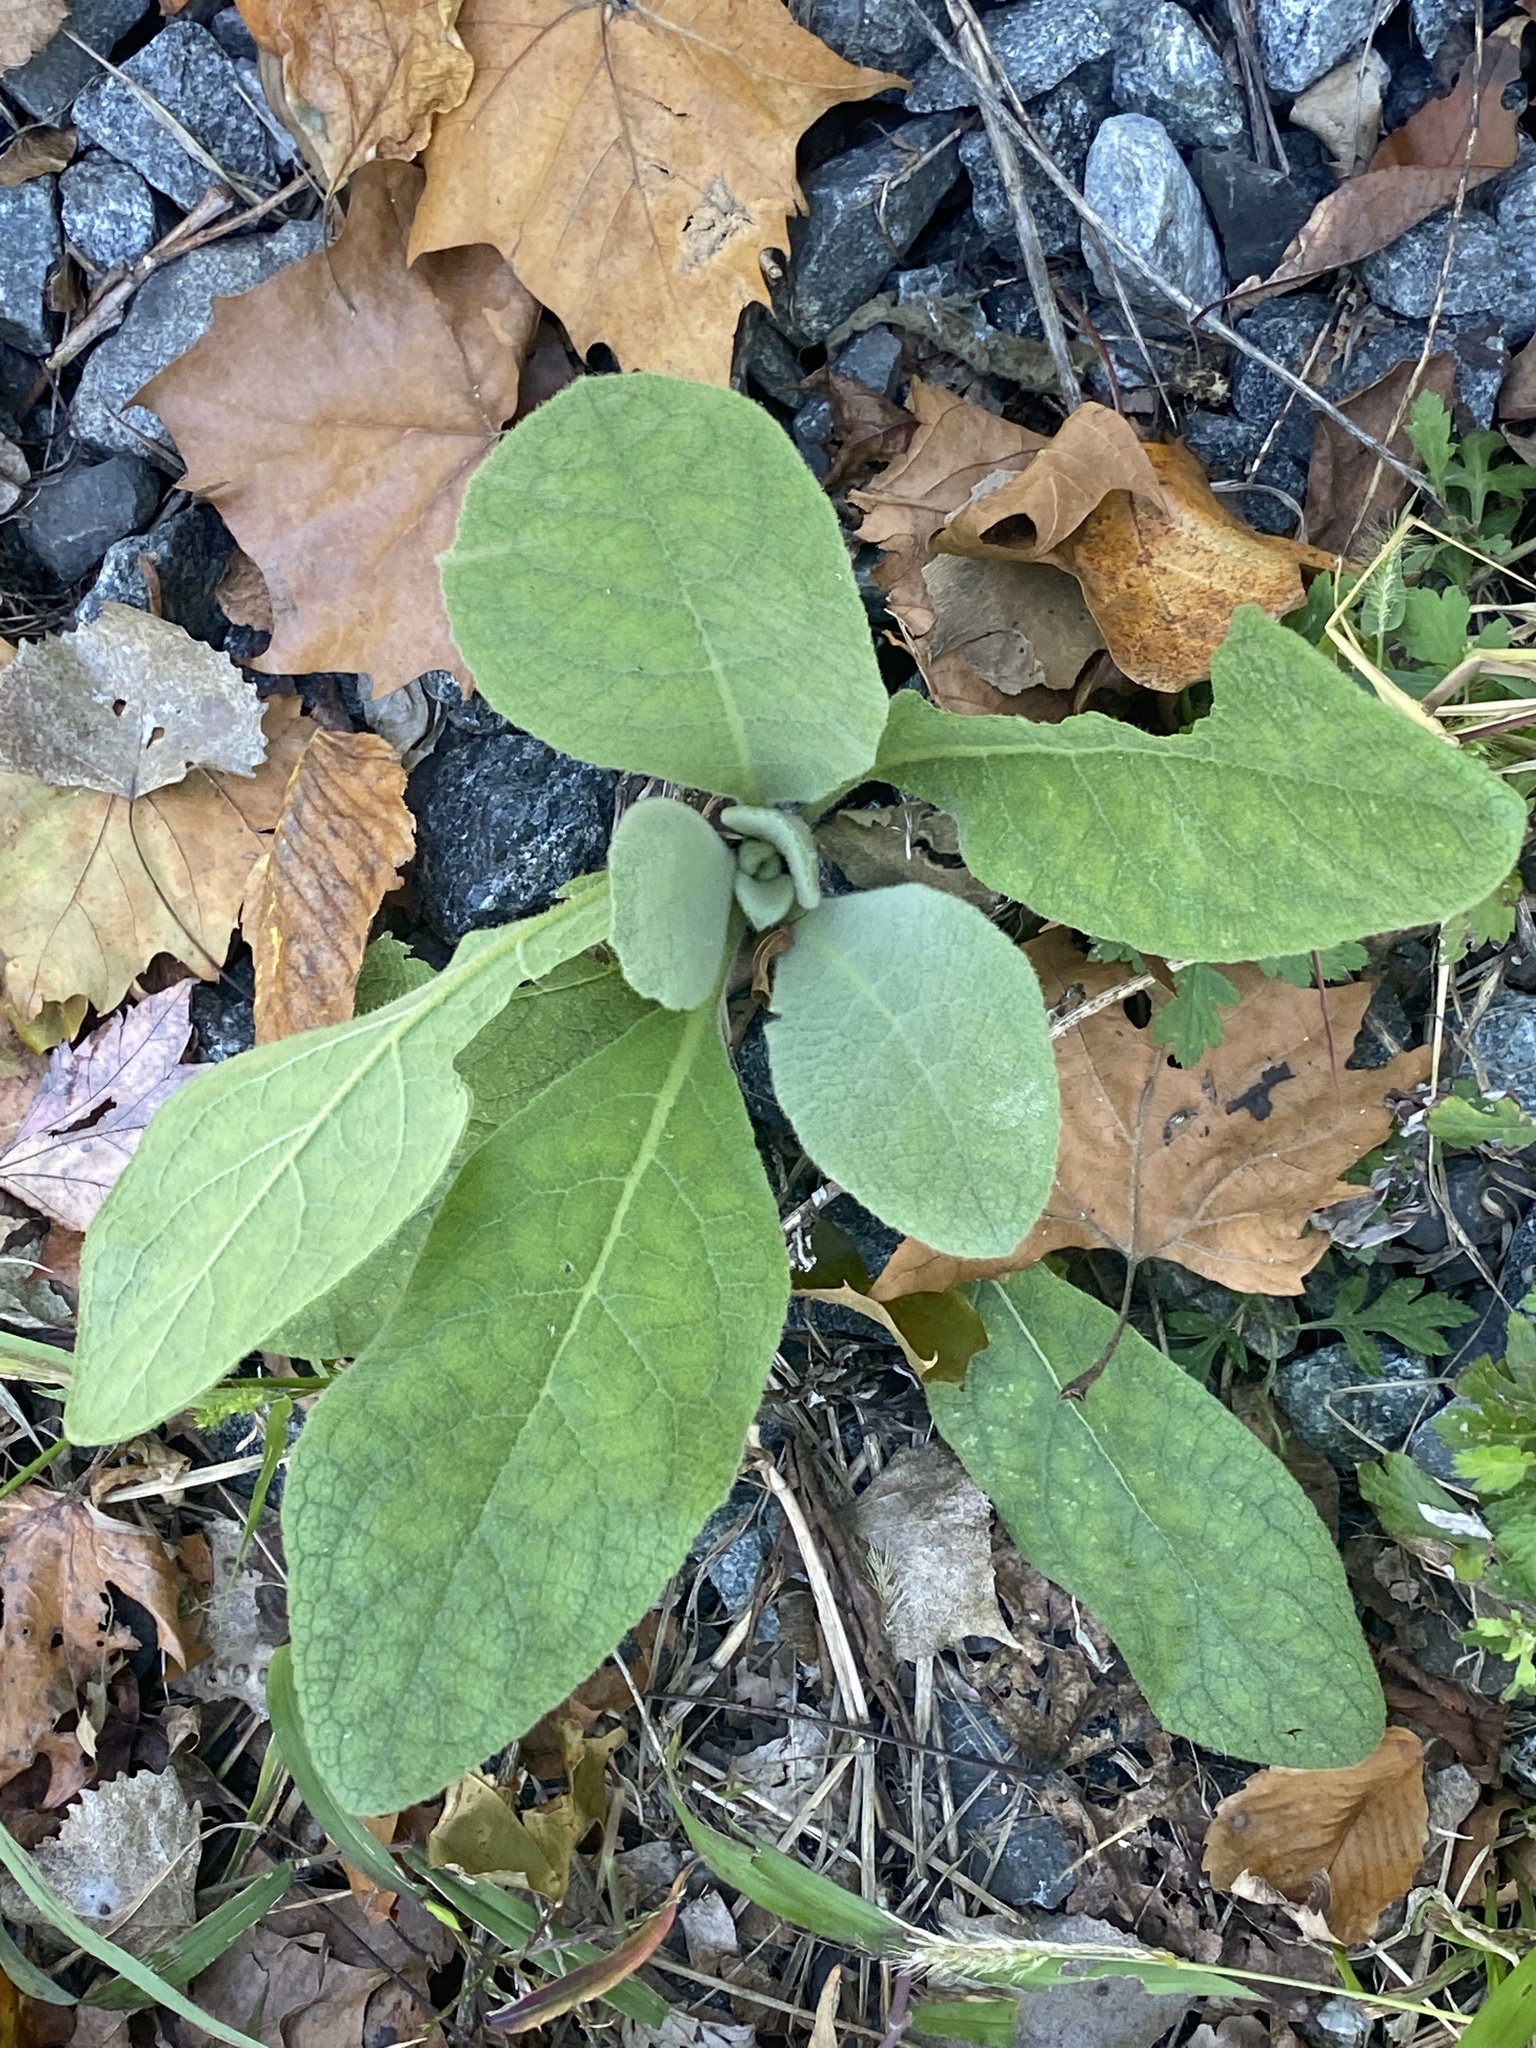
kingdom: Plantae
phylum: Tracheophyta
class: Magnoliopsida
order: Lamiales
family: Scrophulariaceae
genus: Verbascum
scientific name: Verbascum thapsus
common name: Common mullein
